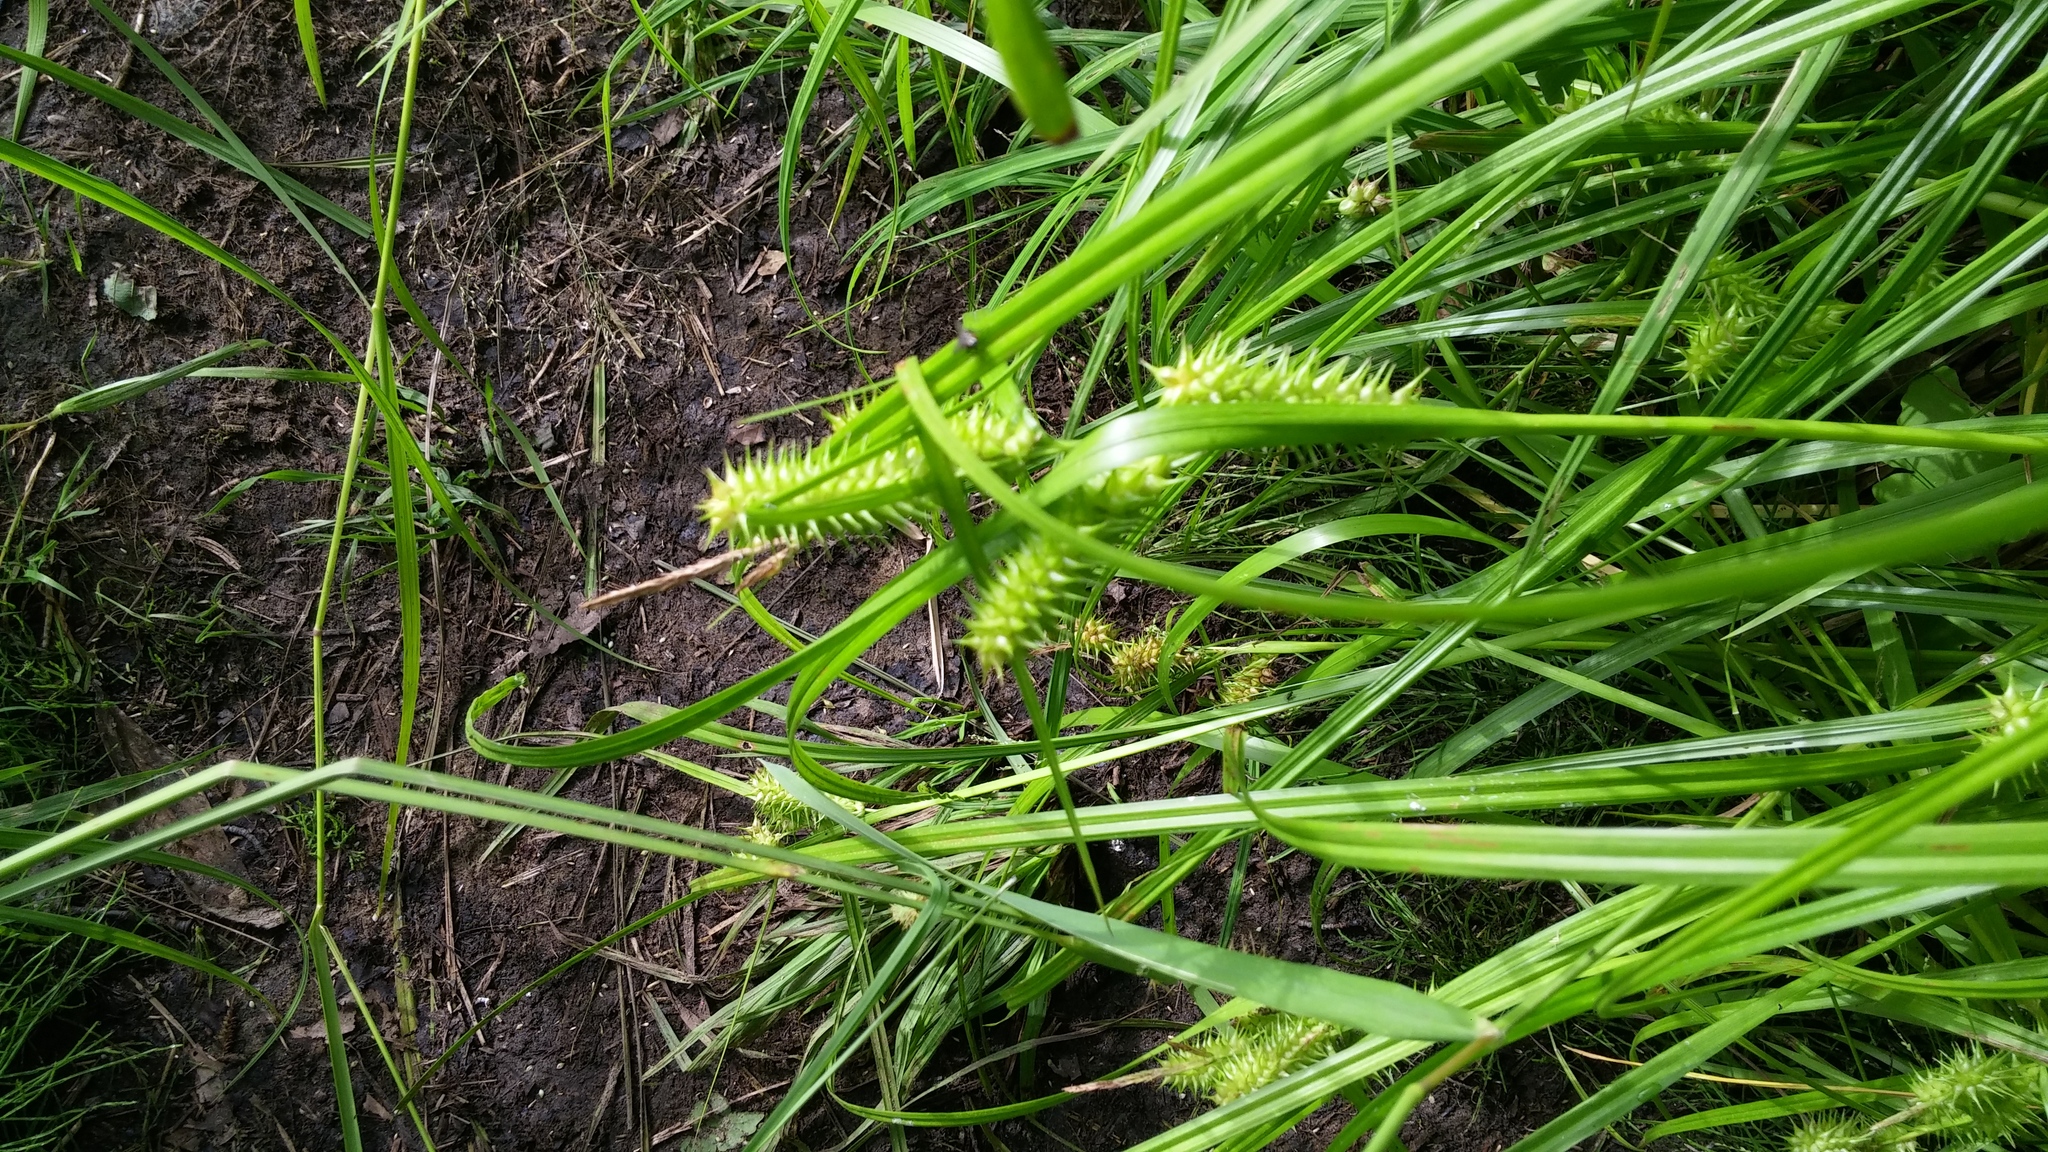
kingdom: Plantae
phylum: Tracheophyta
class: Liliopsida
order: Poales
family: Cyperaceae
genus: Carex
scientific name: Carex retrorsa
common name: Knot-sheath sedge
